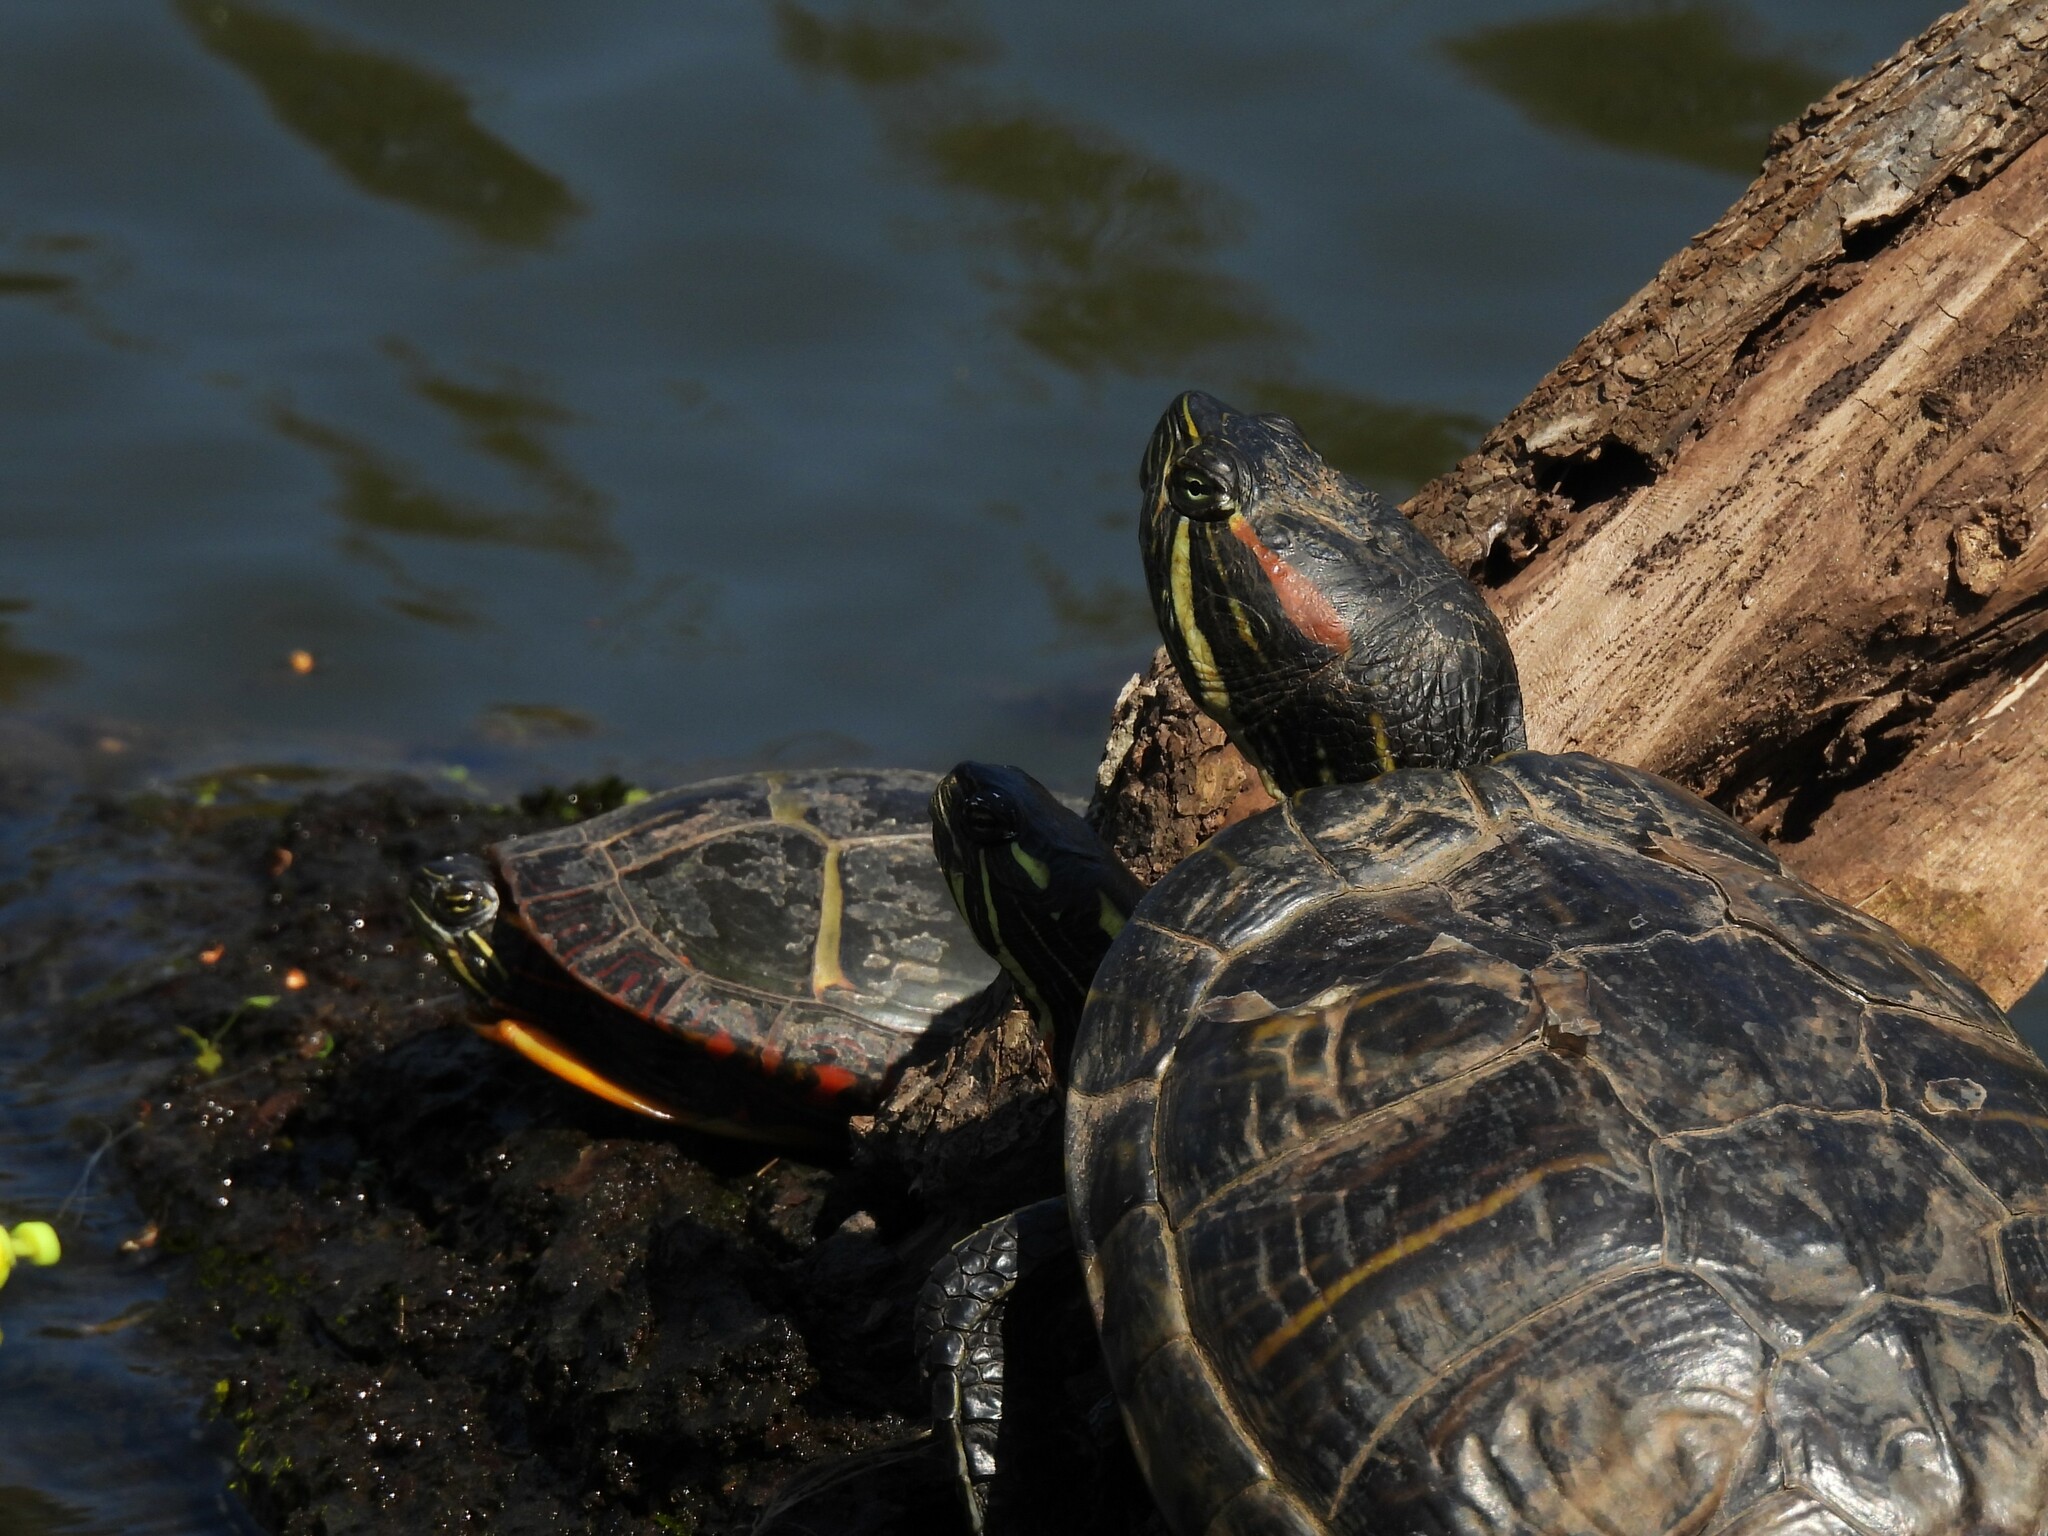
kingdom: Animalia
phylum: Chordata
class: Testudines
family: Emydidae
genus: Trachemys
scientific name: Trachemys scripta
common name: Slider
